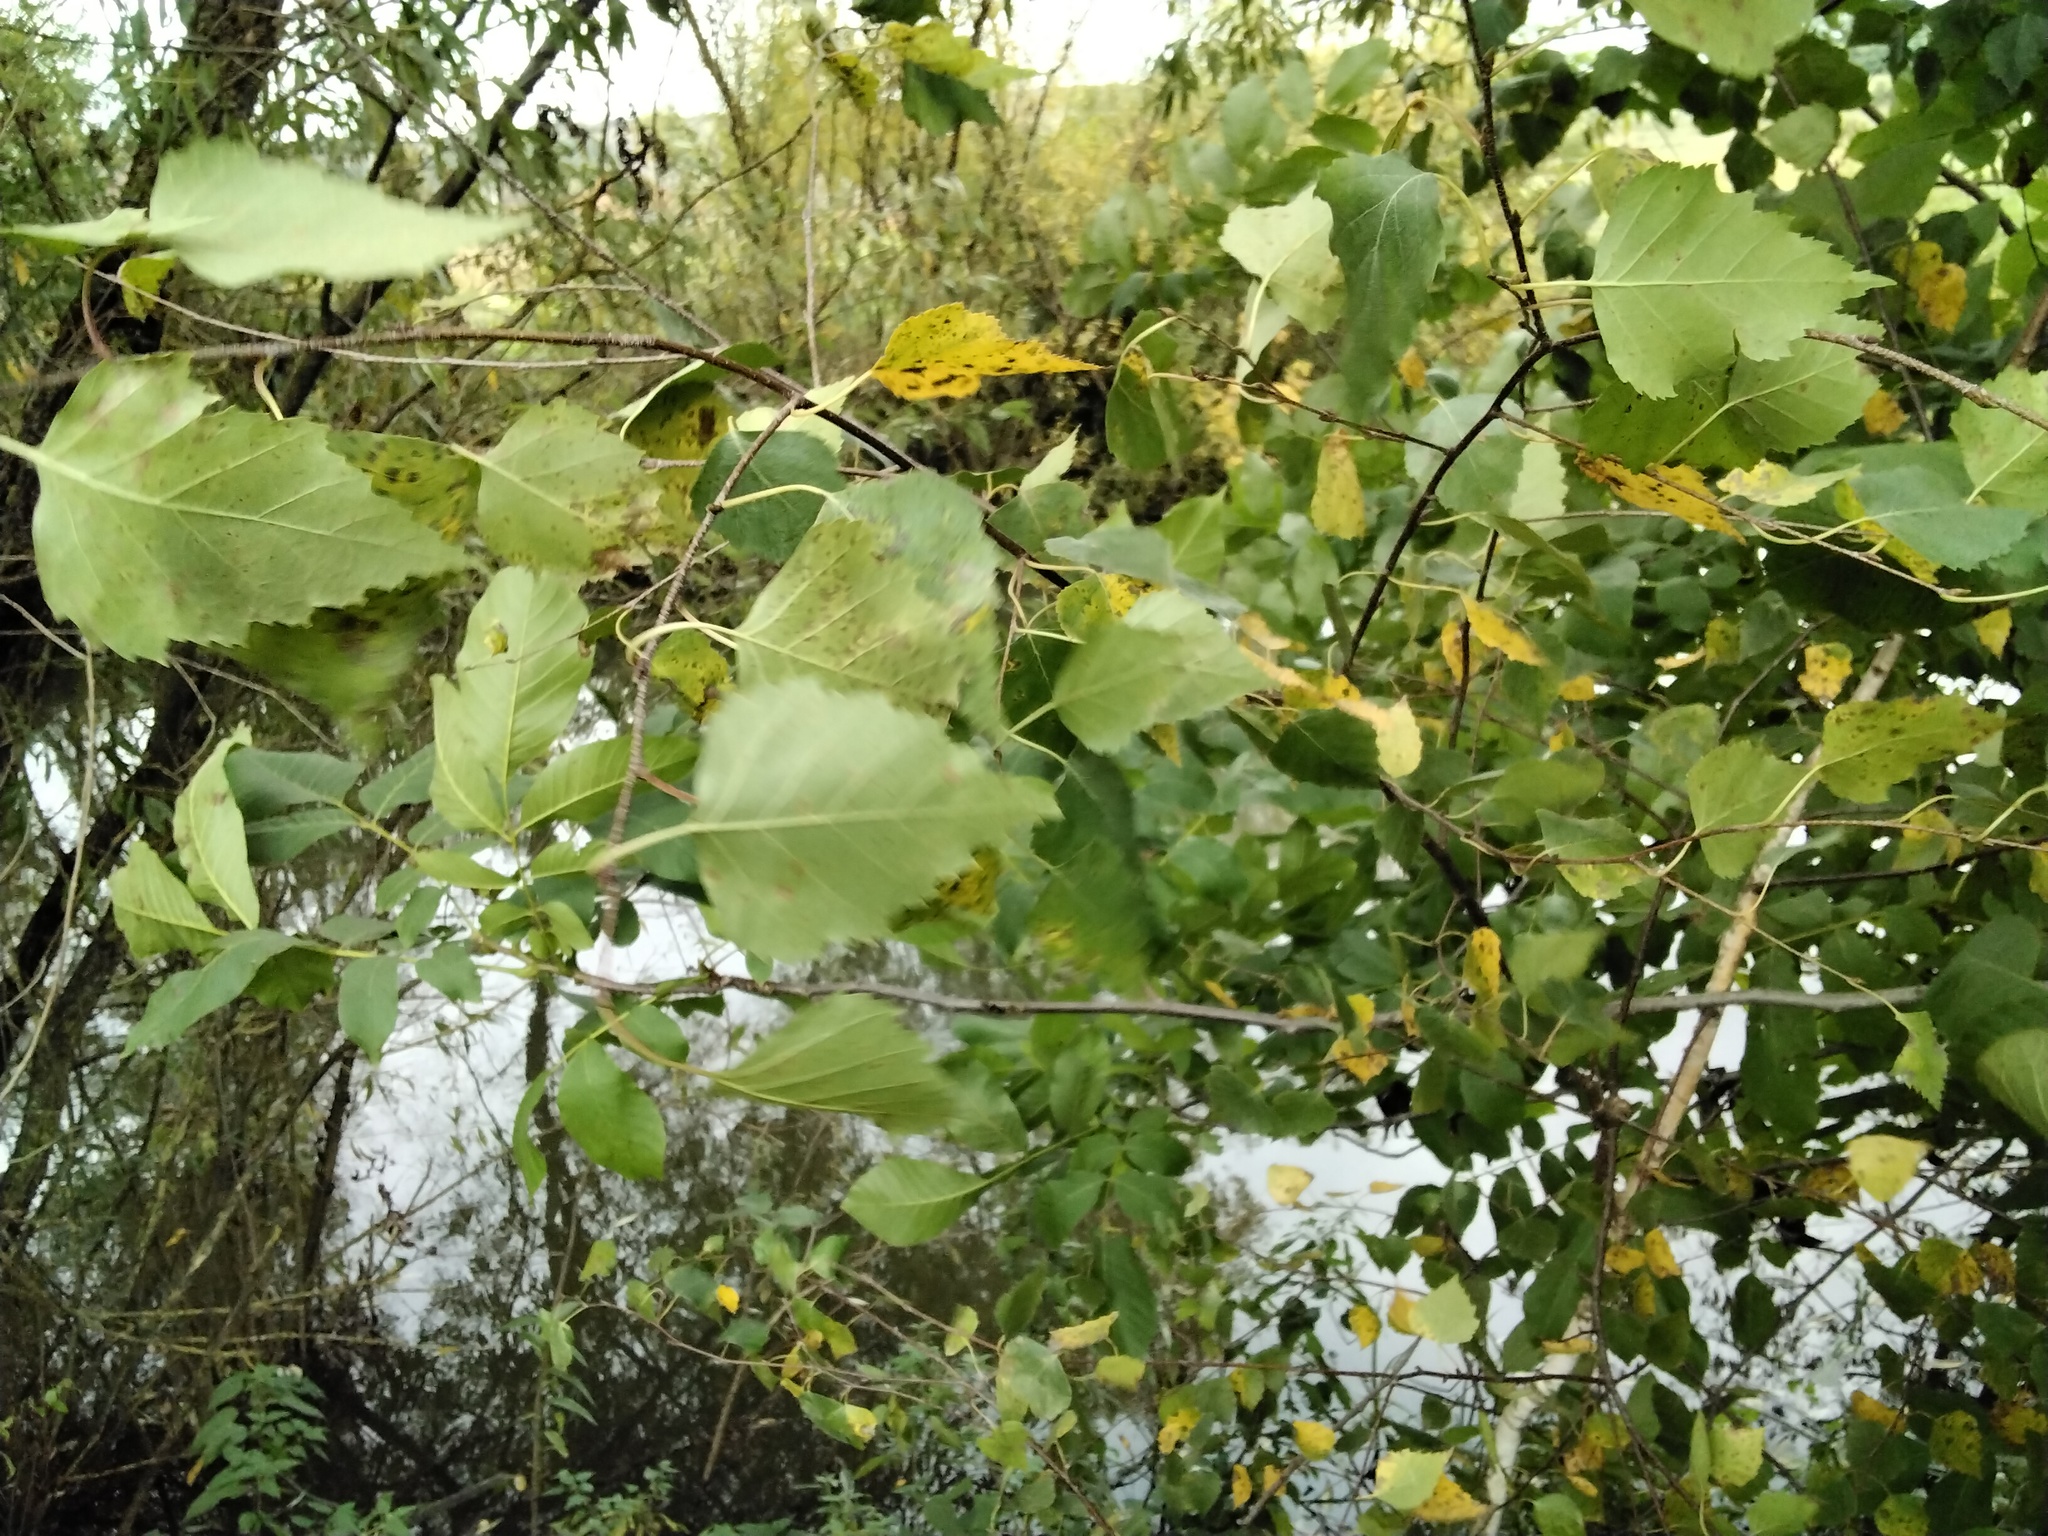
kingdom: Plantae
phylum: Tracheophyta
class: Magnoliopsida
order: Fagales
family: Betulaceae
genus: Betula
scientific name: Betula pendula
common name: Silver birch
